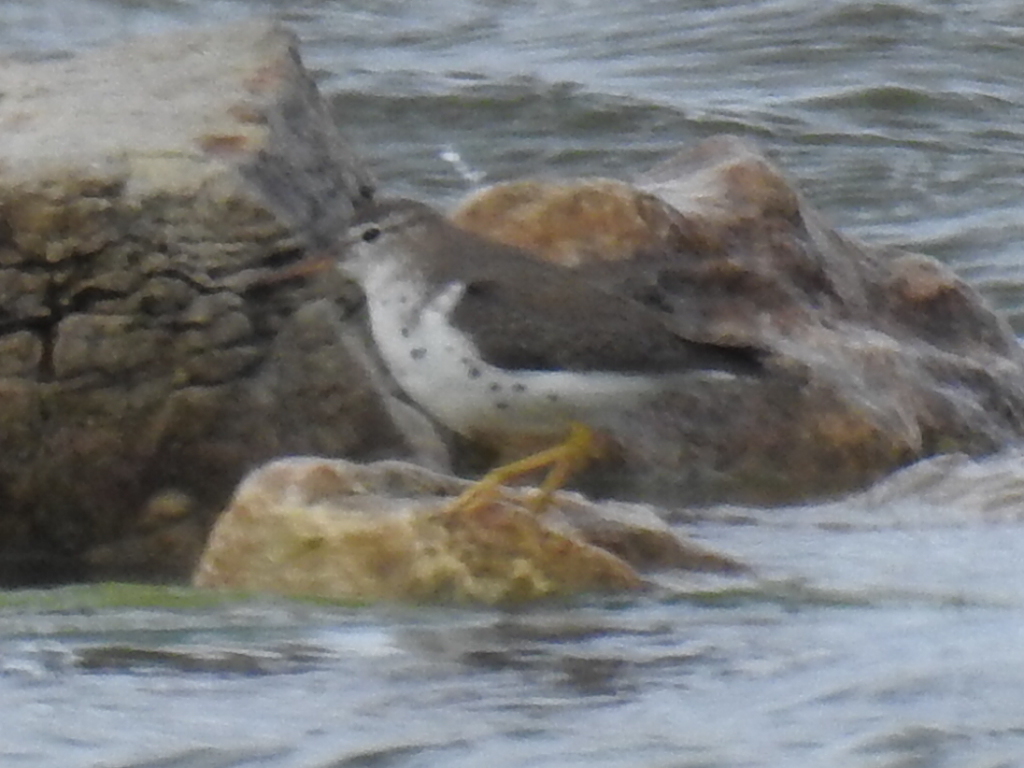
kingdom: Animalia
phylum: Chordata
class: Aves
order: Charadriiformes
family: Scolopacidae
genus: Actitis
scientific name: Actitis macularius
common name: Spotted sandpiper
